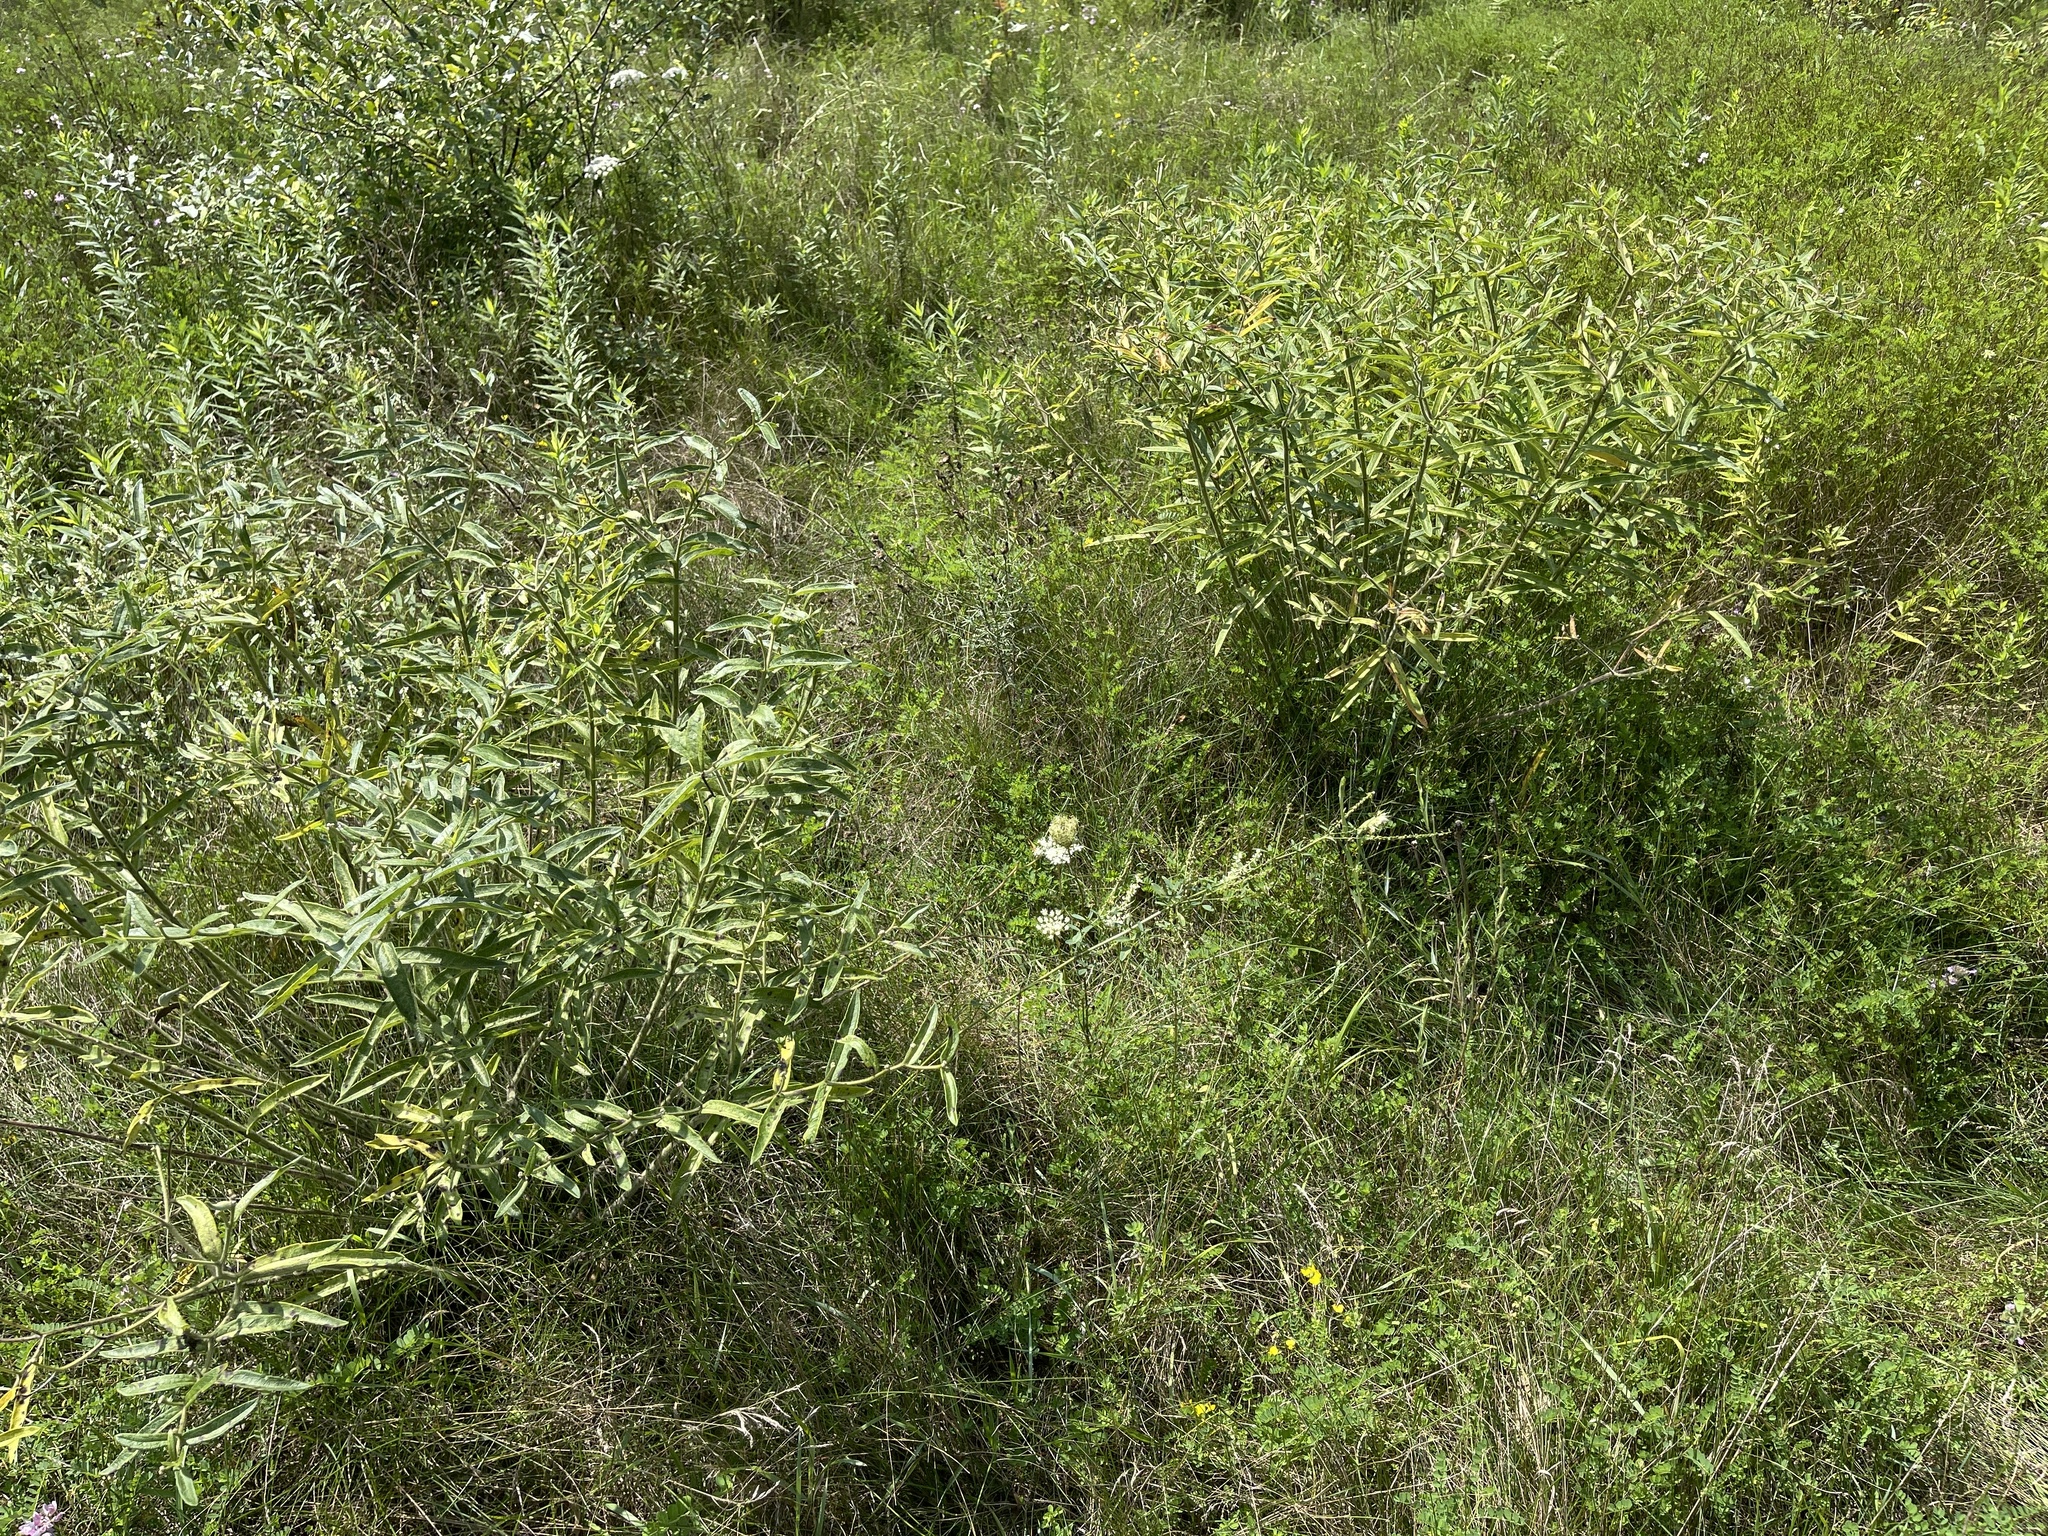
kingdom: Plantae
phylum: Tracheophyta
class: Magnoliopsida
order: Gentianales
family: Apocynaceae
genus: Asclepias
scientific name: Asclepias tuberosa
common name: Butterfly milkweed
